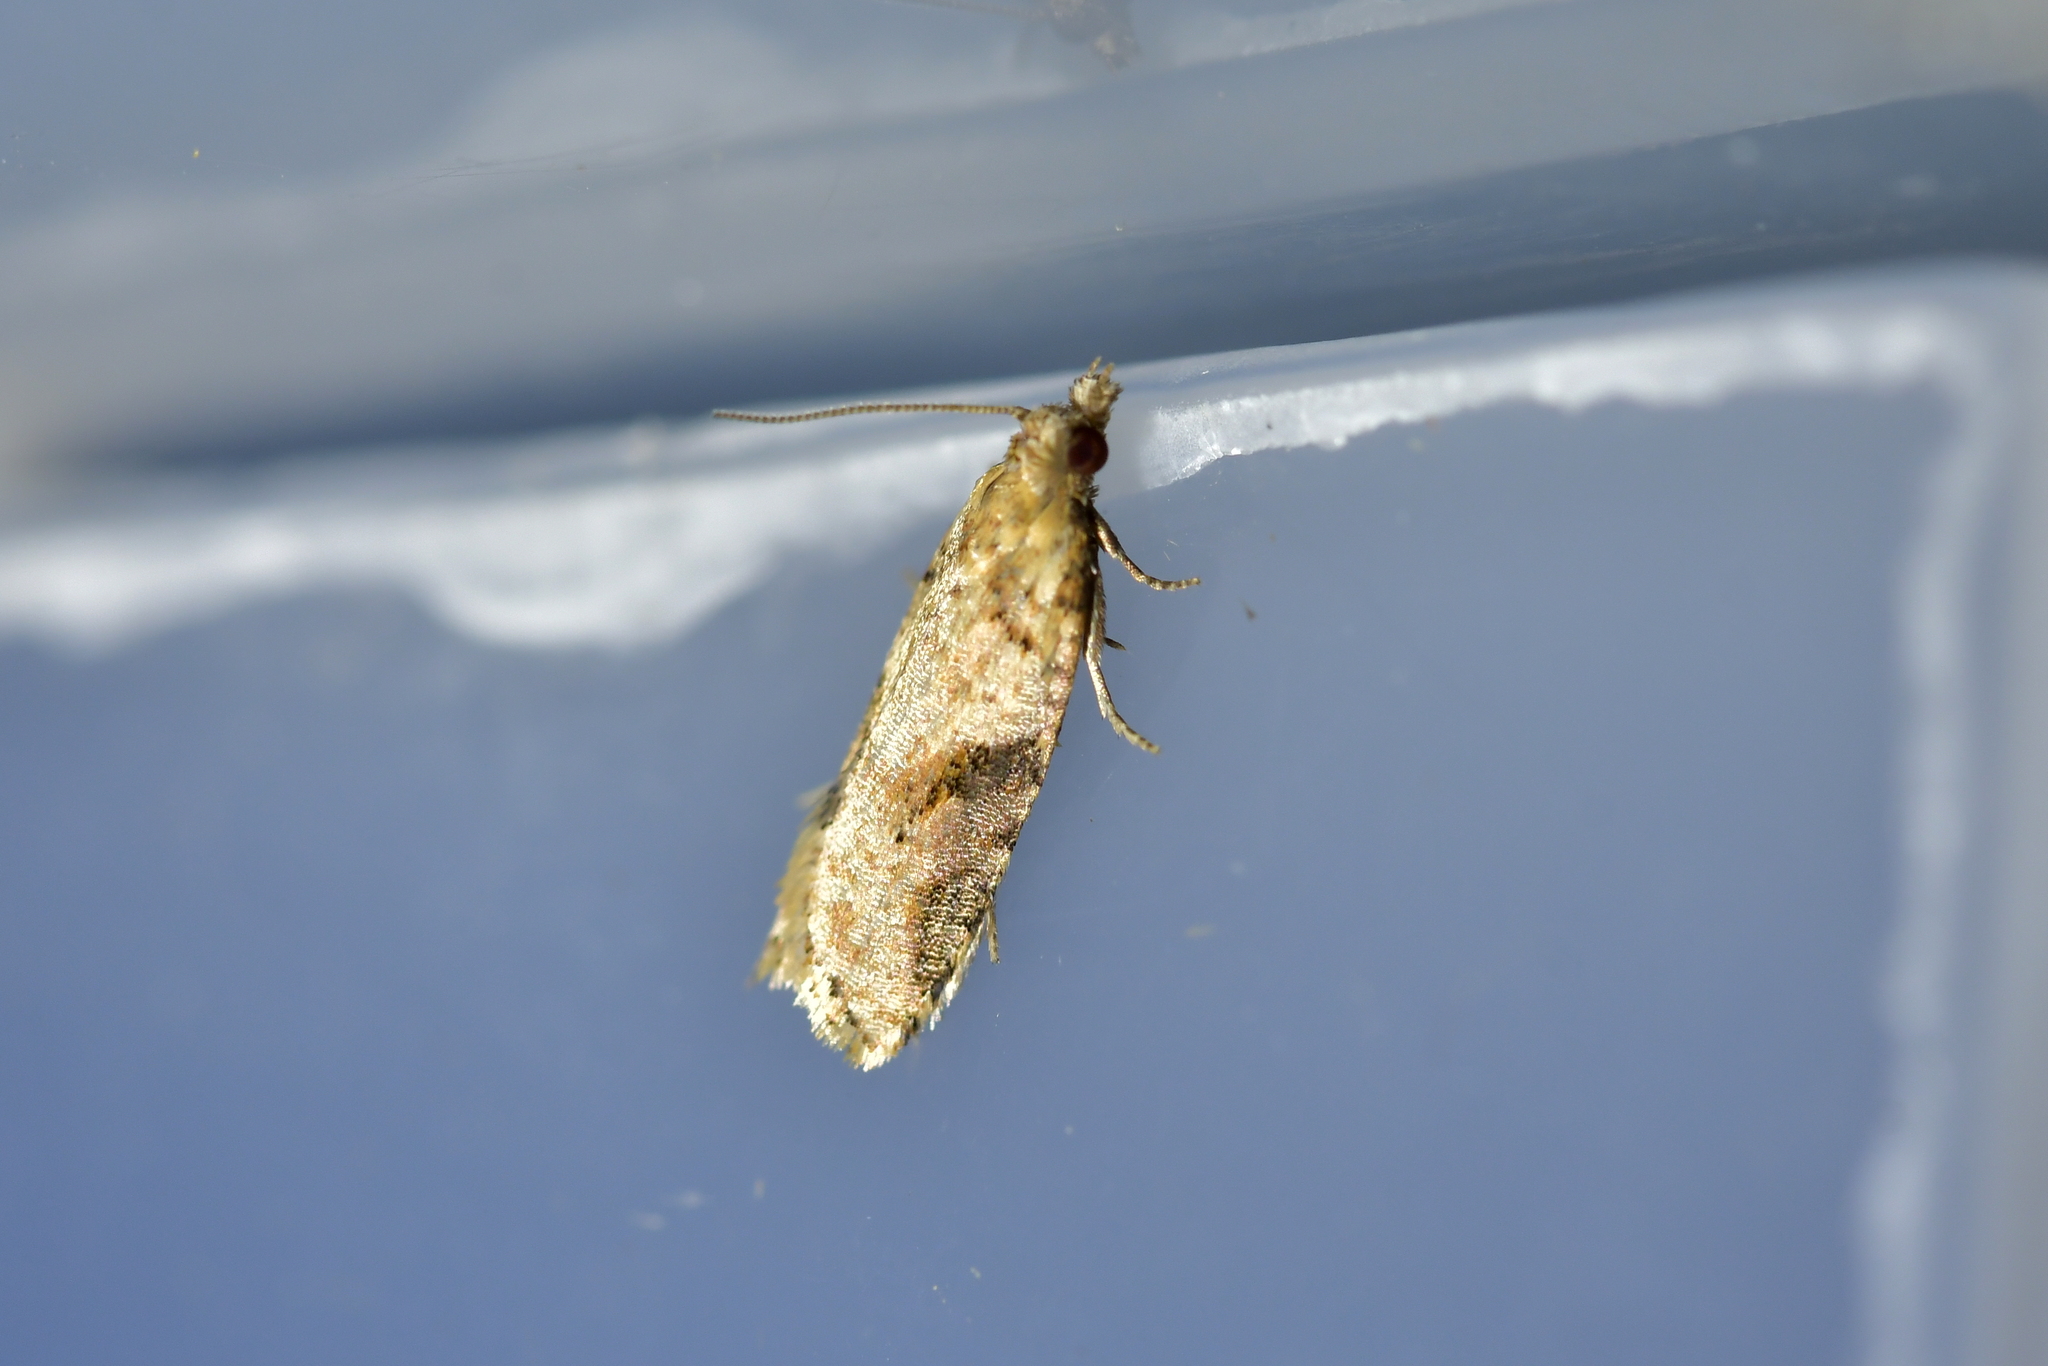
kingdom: Animalia
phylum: Arthropoda
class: Insecta
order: Lepidoptera
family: Tortricidae
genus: Capua
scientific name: Capua semiferana
